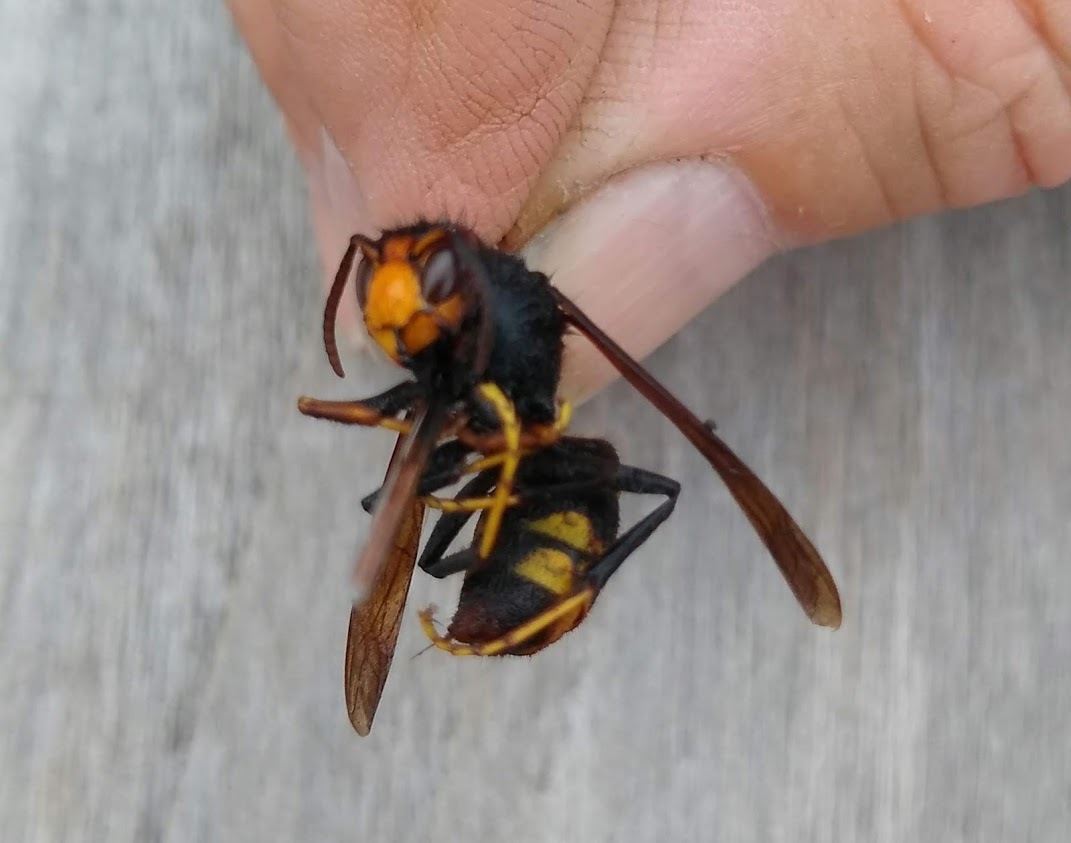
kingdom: Animalia
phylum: Arthropoda
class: Insecta
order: Hymenoptera
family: Vespidae
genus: Vespa
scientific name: Vespa velutina
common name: Asian hornet
